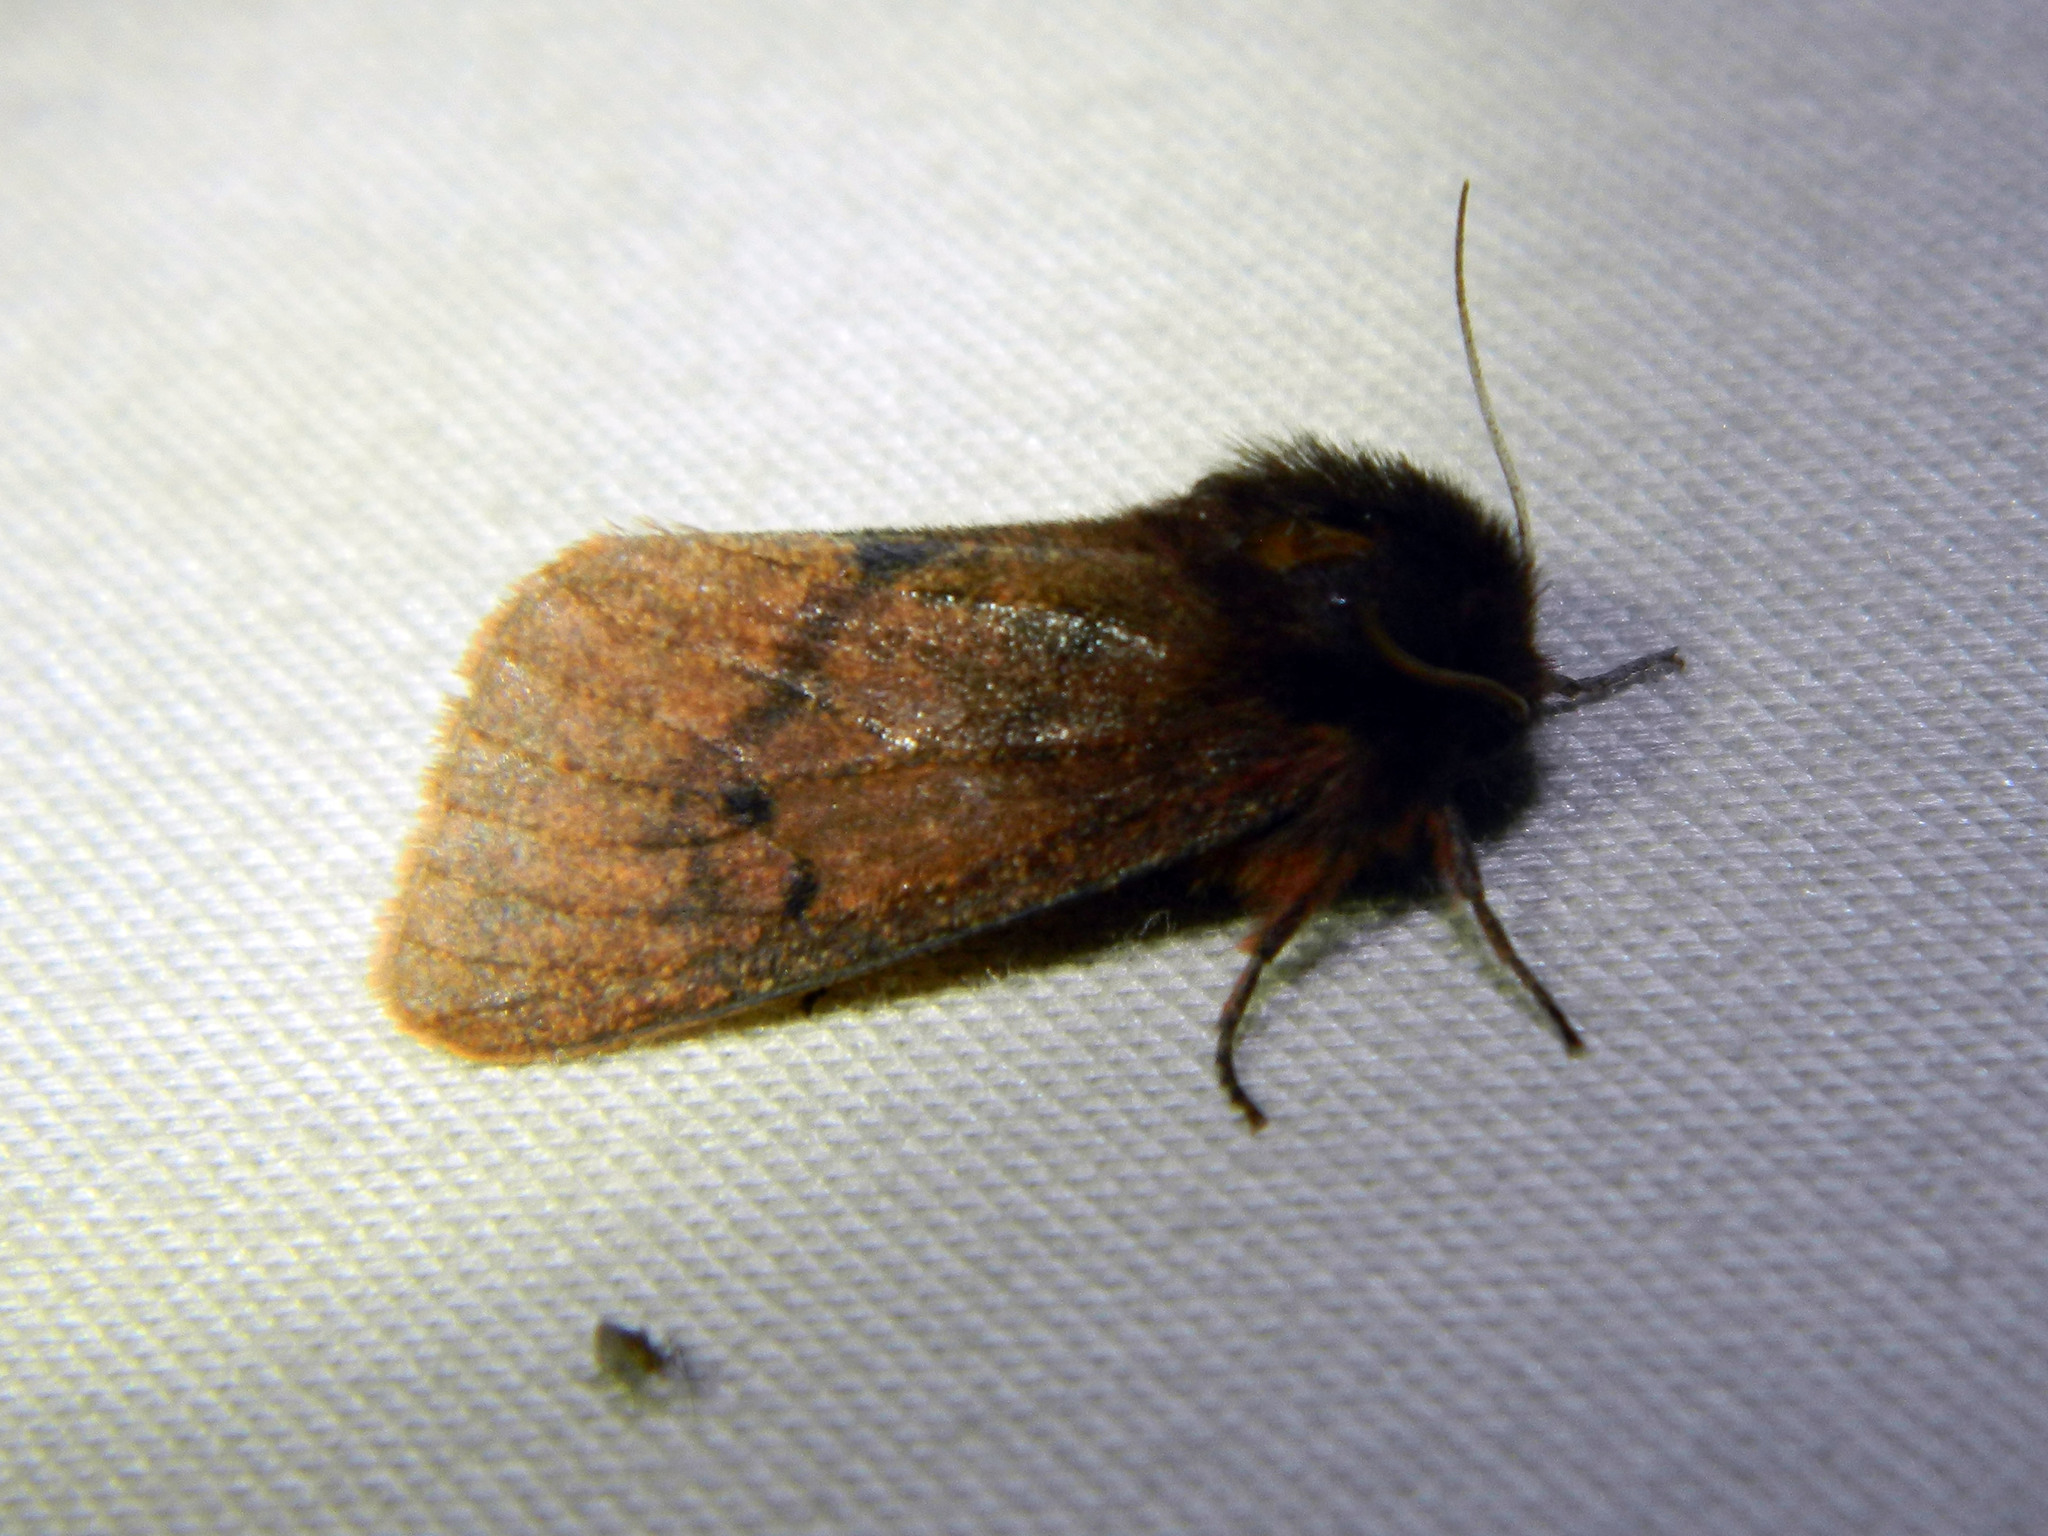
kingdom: Animalia
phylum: Arthropoda
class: Insecta
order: Lepidoptera
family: Erebidae
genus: Phragmatobia
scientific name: Phragmatobia assimilans
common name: Large ruby tiger moth
